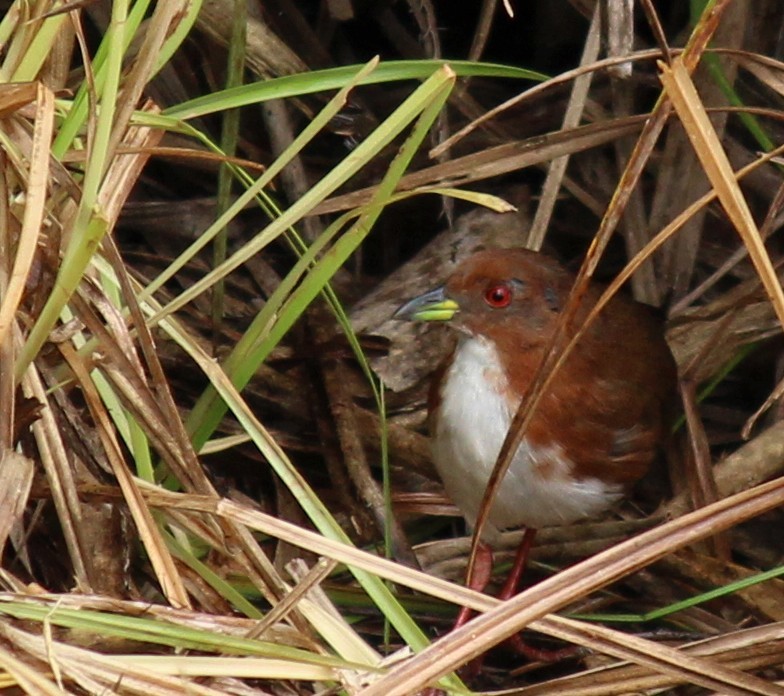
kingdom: Animalia
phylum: Chordata
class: Aves
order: Gruiformes
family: Rallidae
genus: Laterallus
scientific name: Laterallus leucopyrrhus
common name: Red-and-white crake
